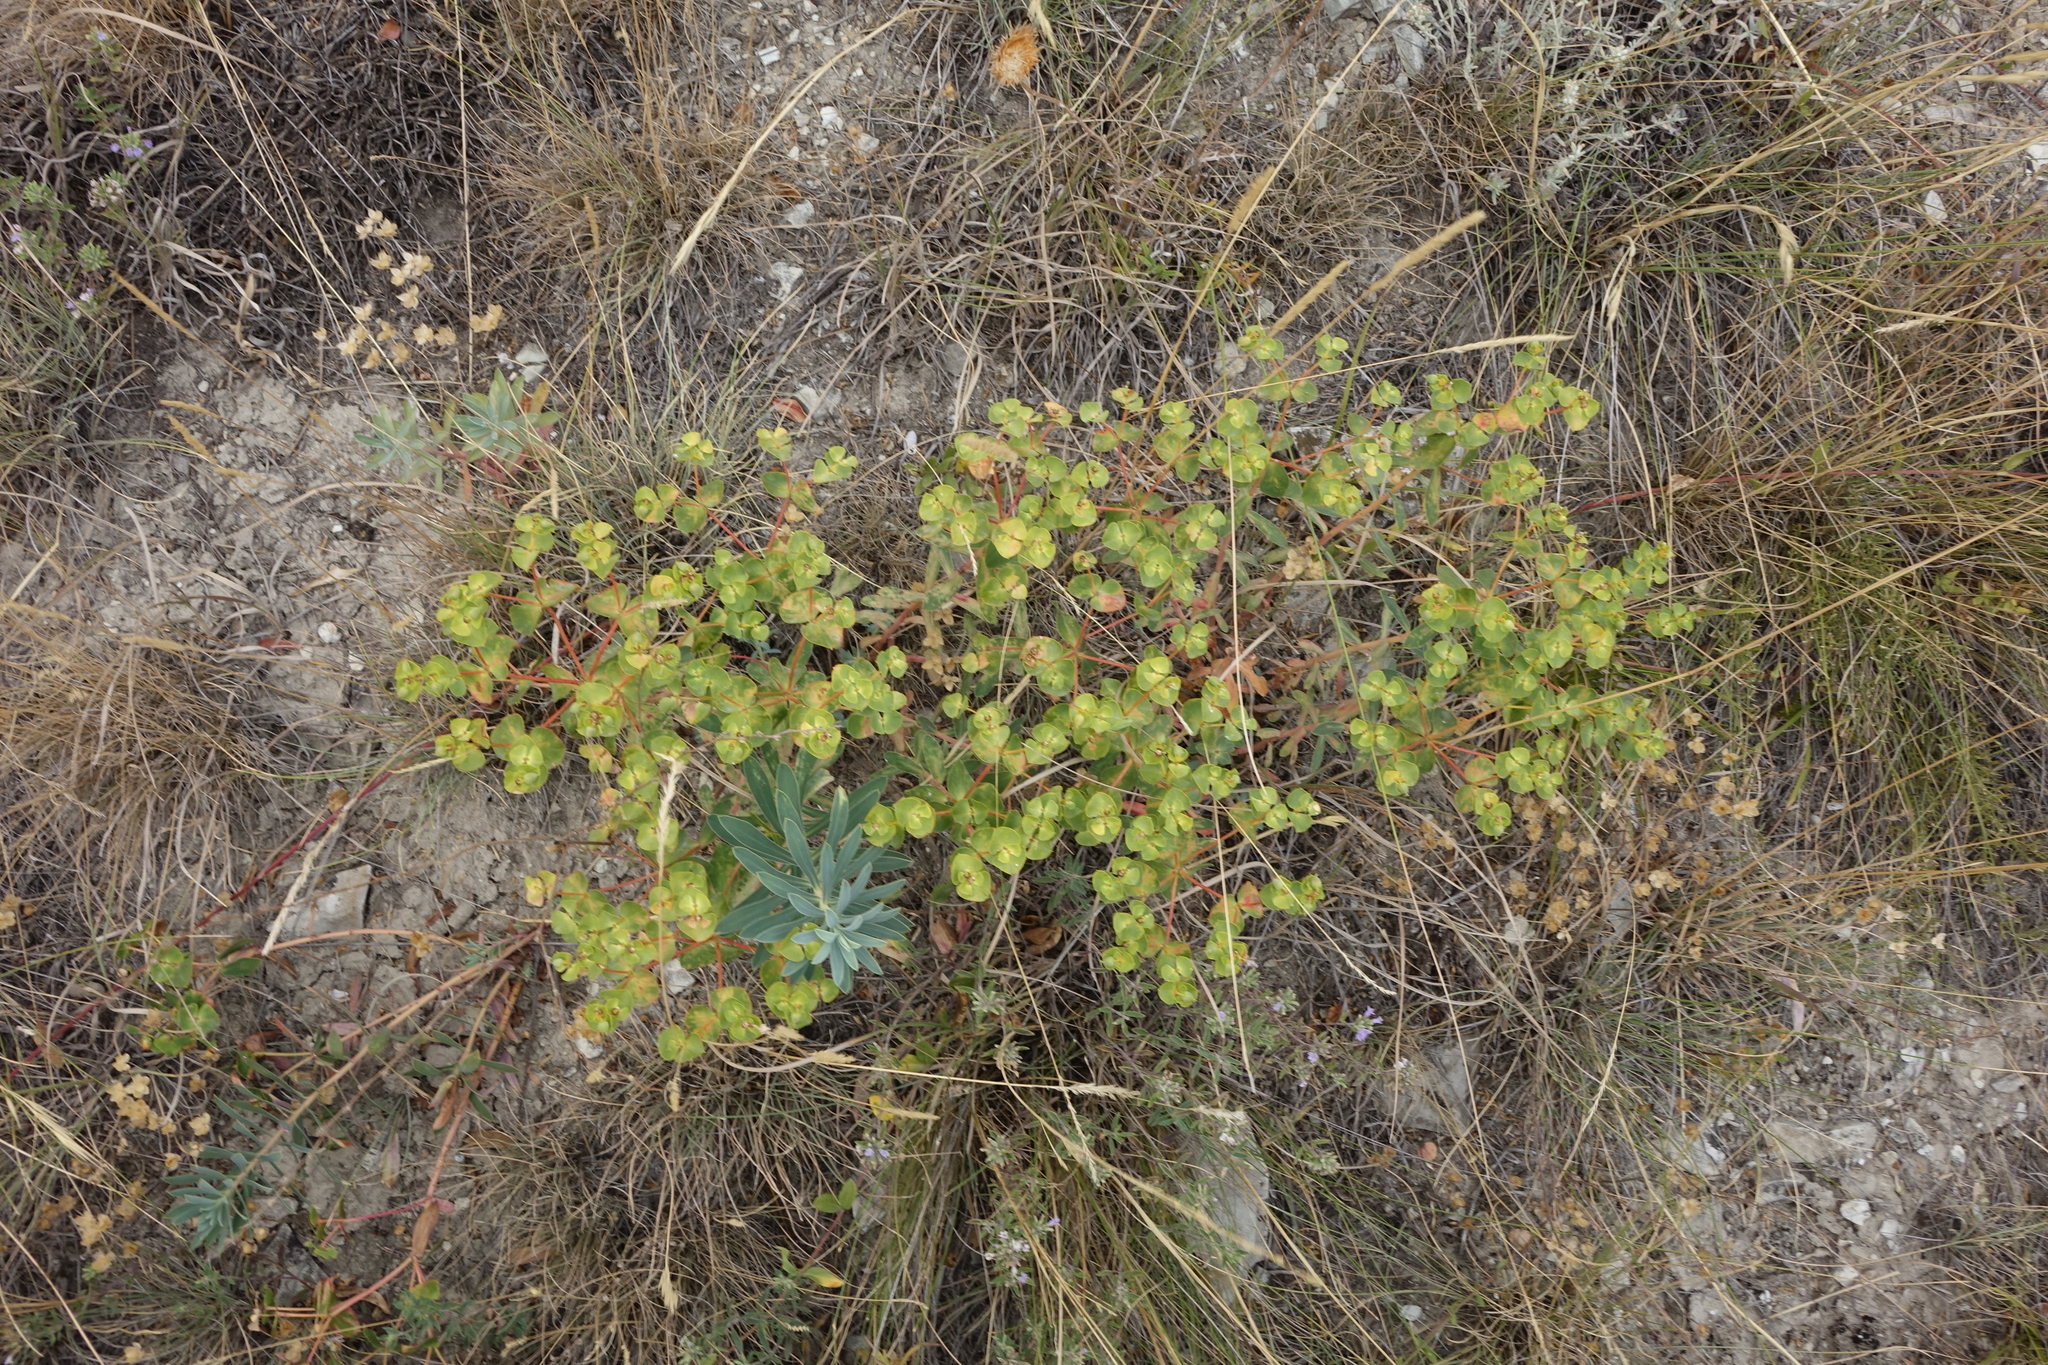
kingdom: Plantae
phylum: Tracheophyta
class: Magnoliopsida
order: Malpighiales
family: Euphorbiaceae
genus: Euphorbia
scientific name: Euphorbia glareosa
